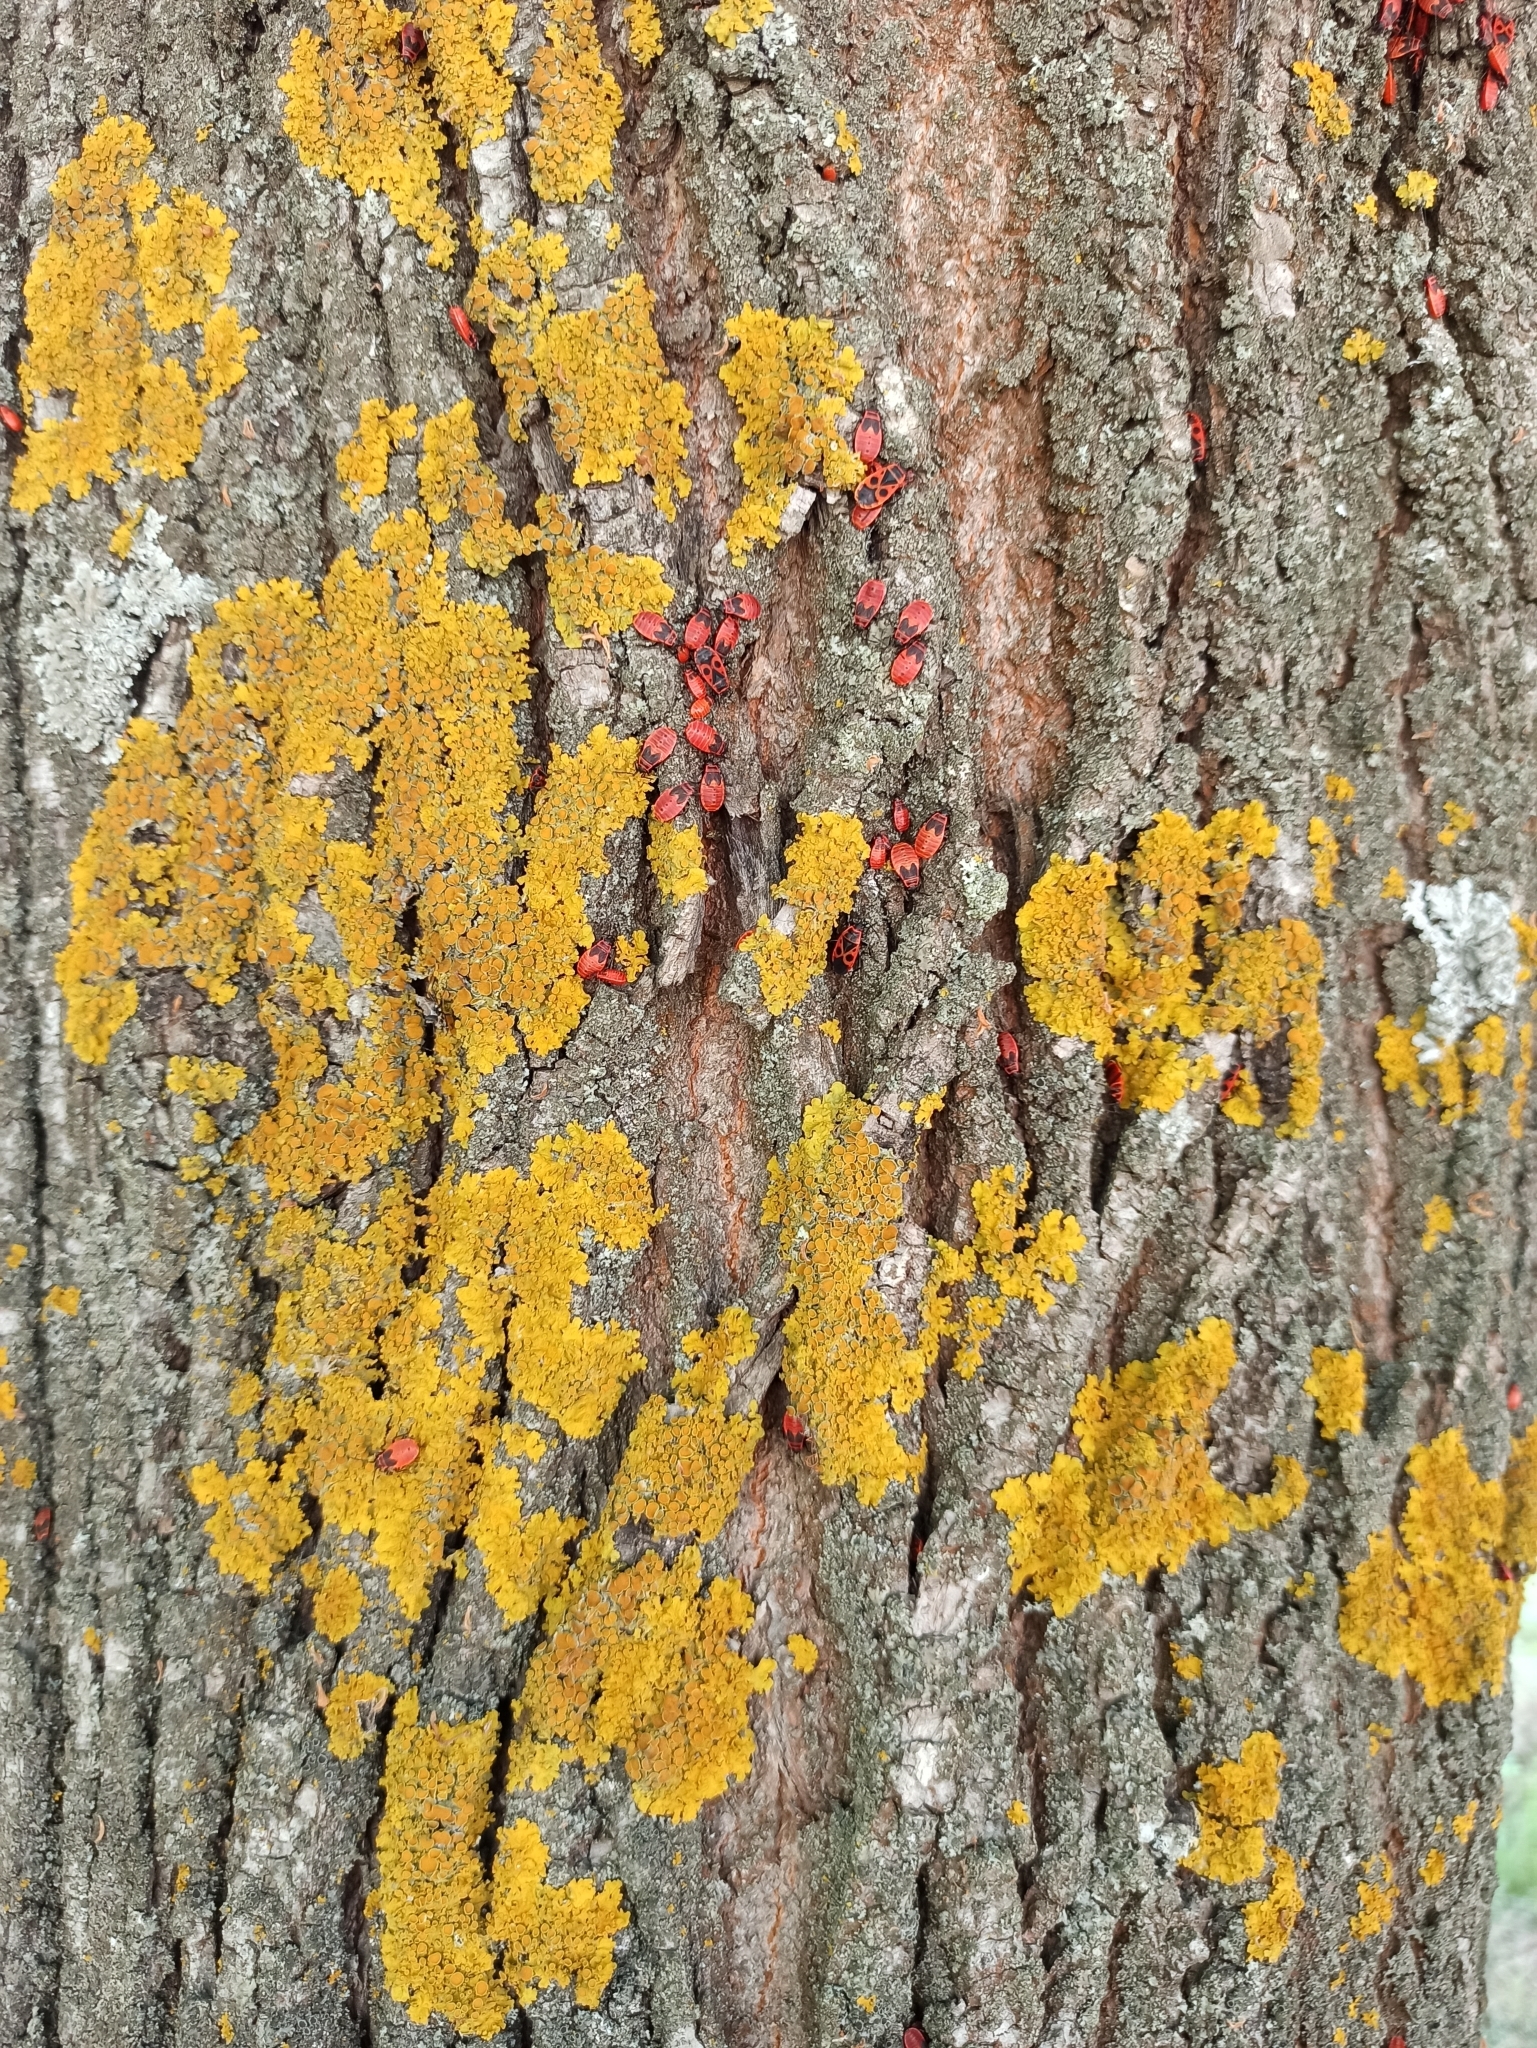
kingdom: Fungi
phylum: Ascomycota
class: Lecanoromycetes
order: Teloschistales
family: Teloschistaceae
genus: Xanthoria
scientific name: Xanthoria parietina
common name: Common orange lichen
